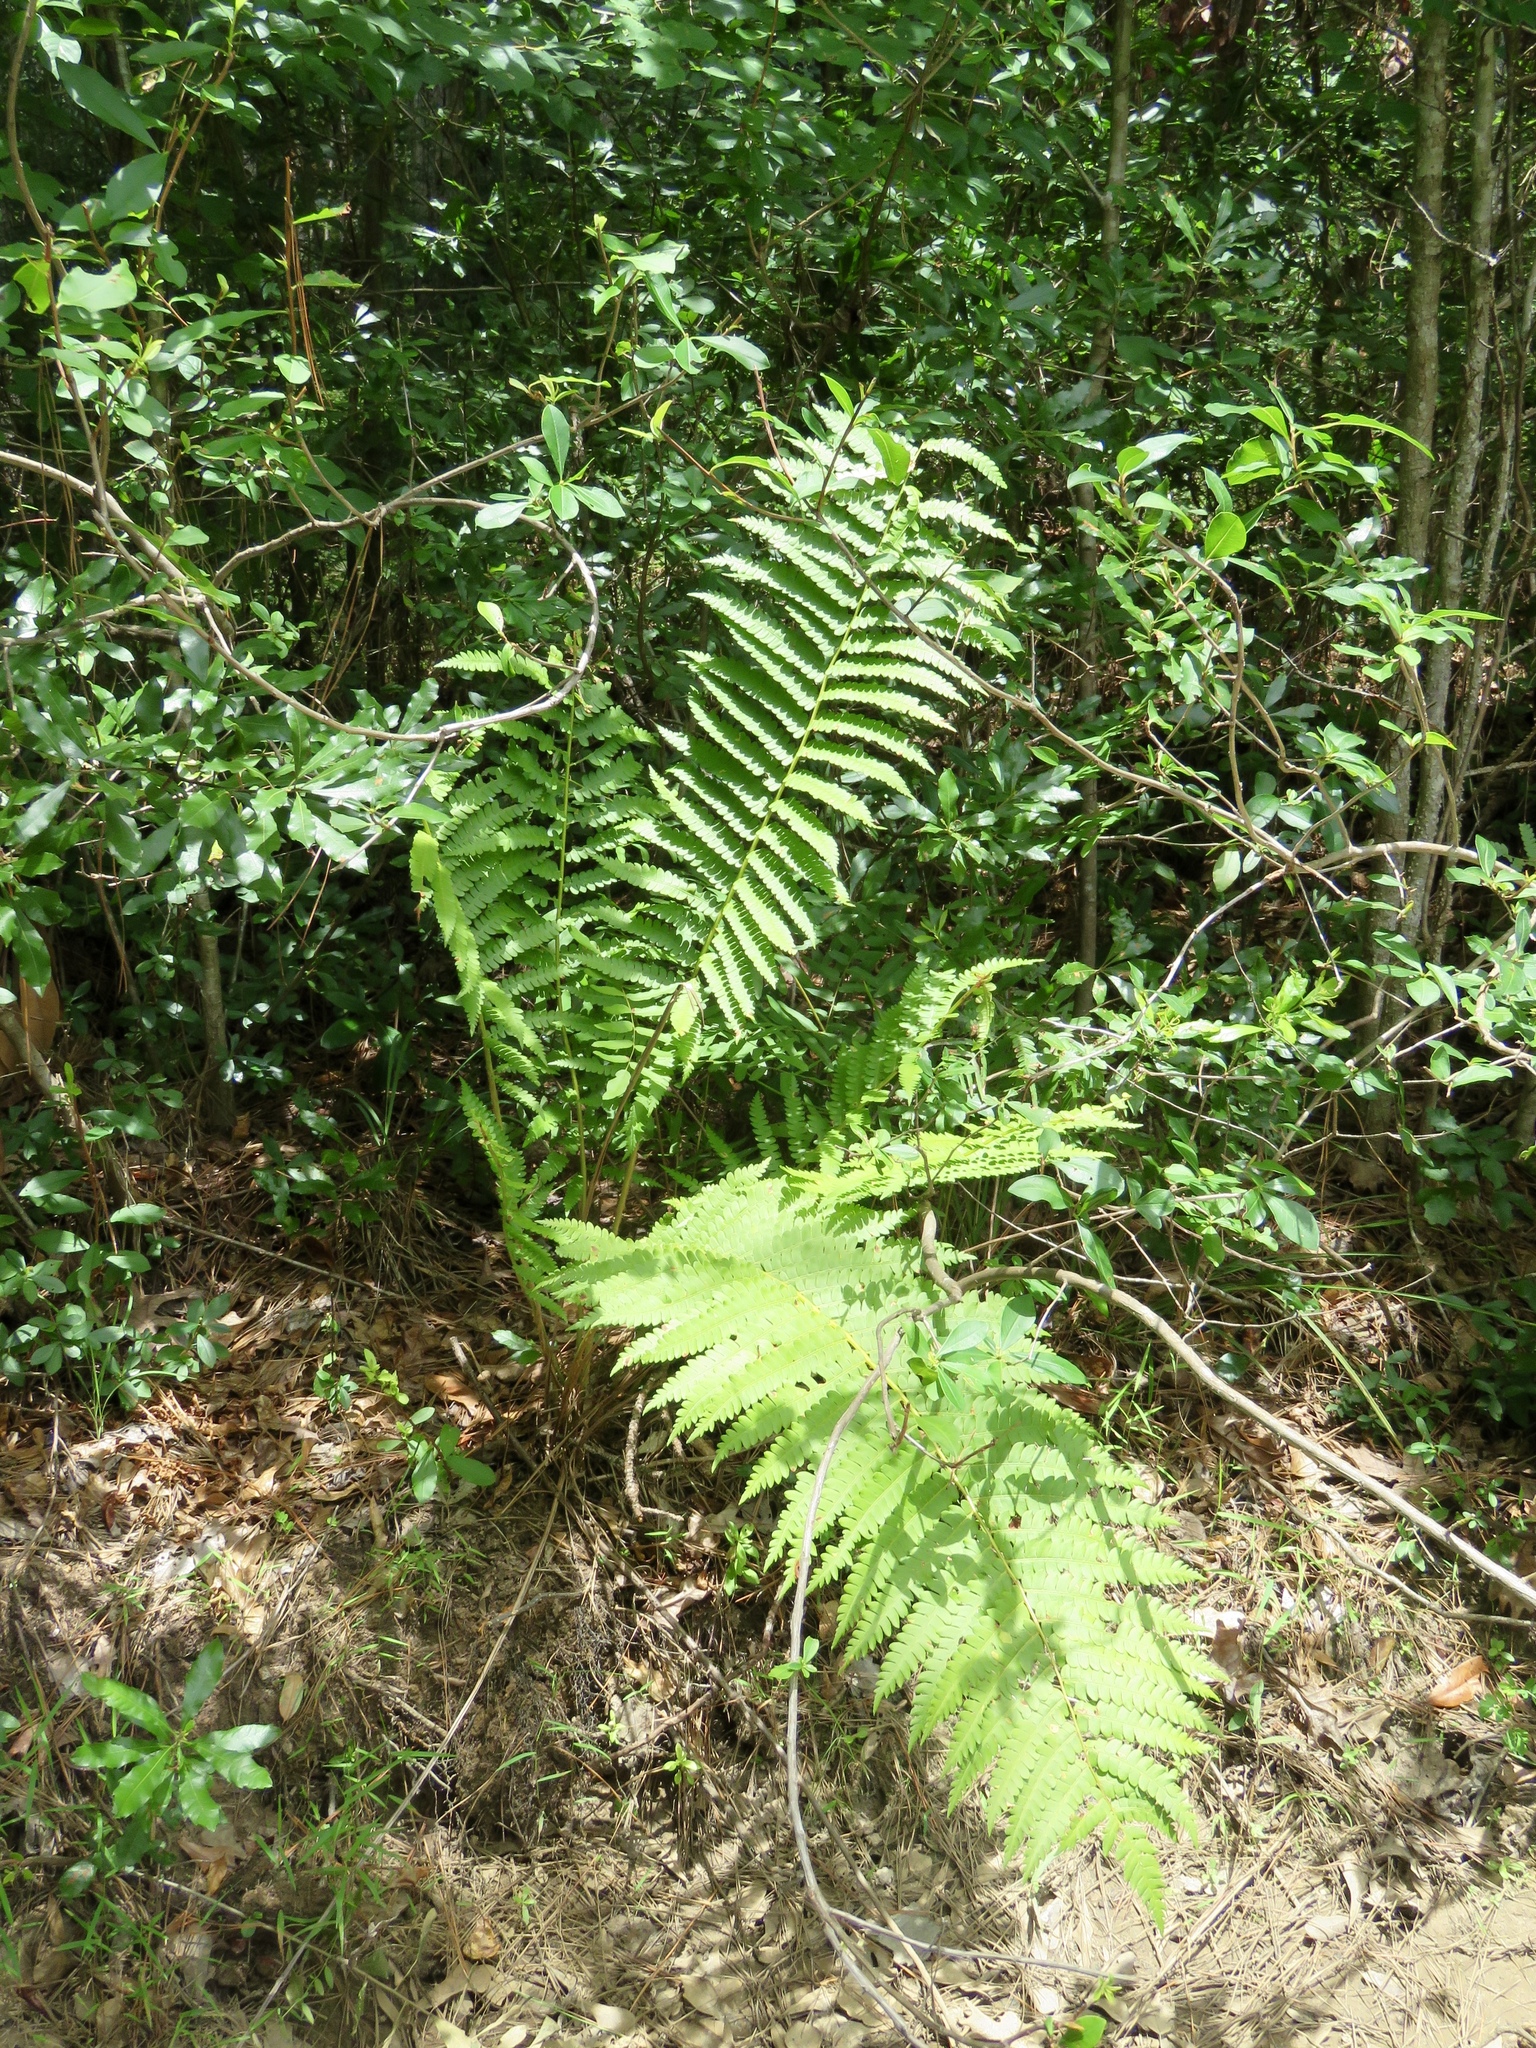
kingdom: Plantae
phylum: Tracheophyta
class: Polypodiopsida
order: Osmundales
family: Osmundaceae
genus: Osmundastrum
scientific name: Osmundastrum cinnamomeum
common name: Cinnamon fern
